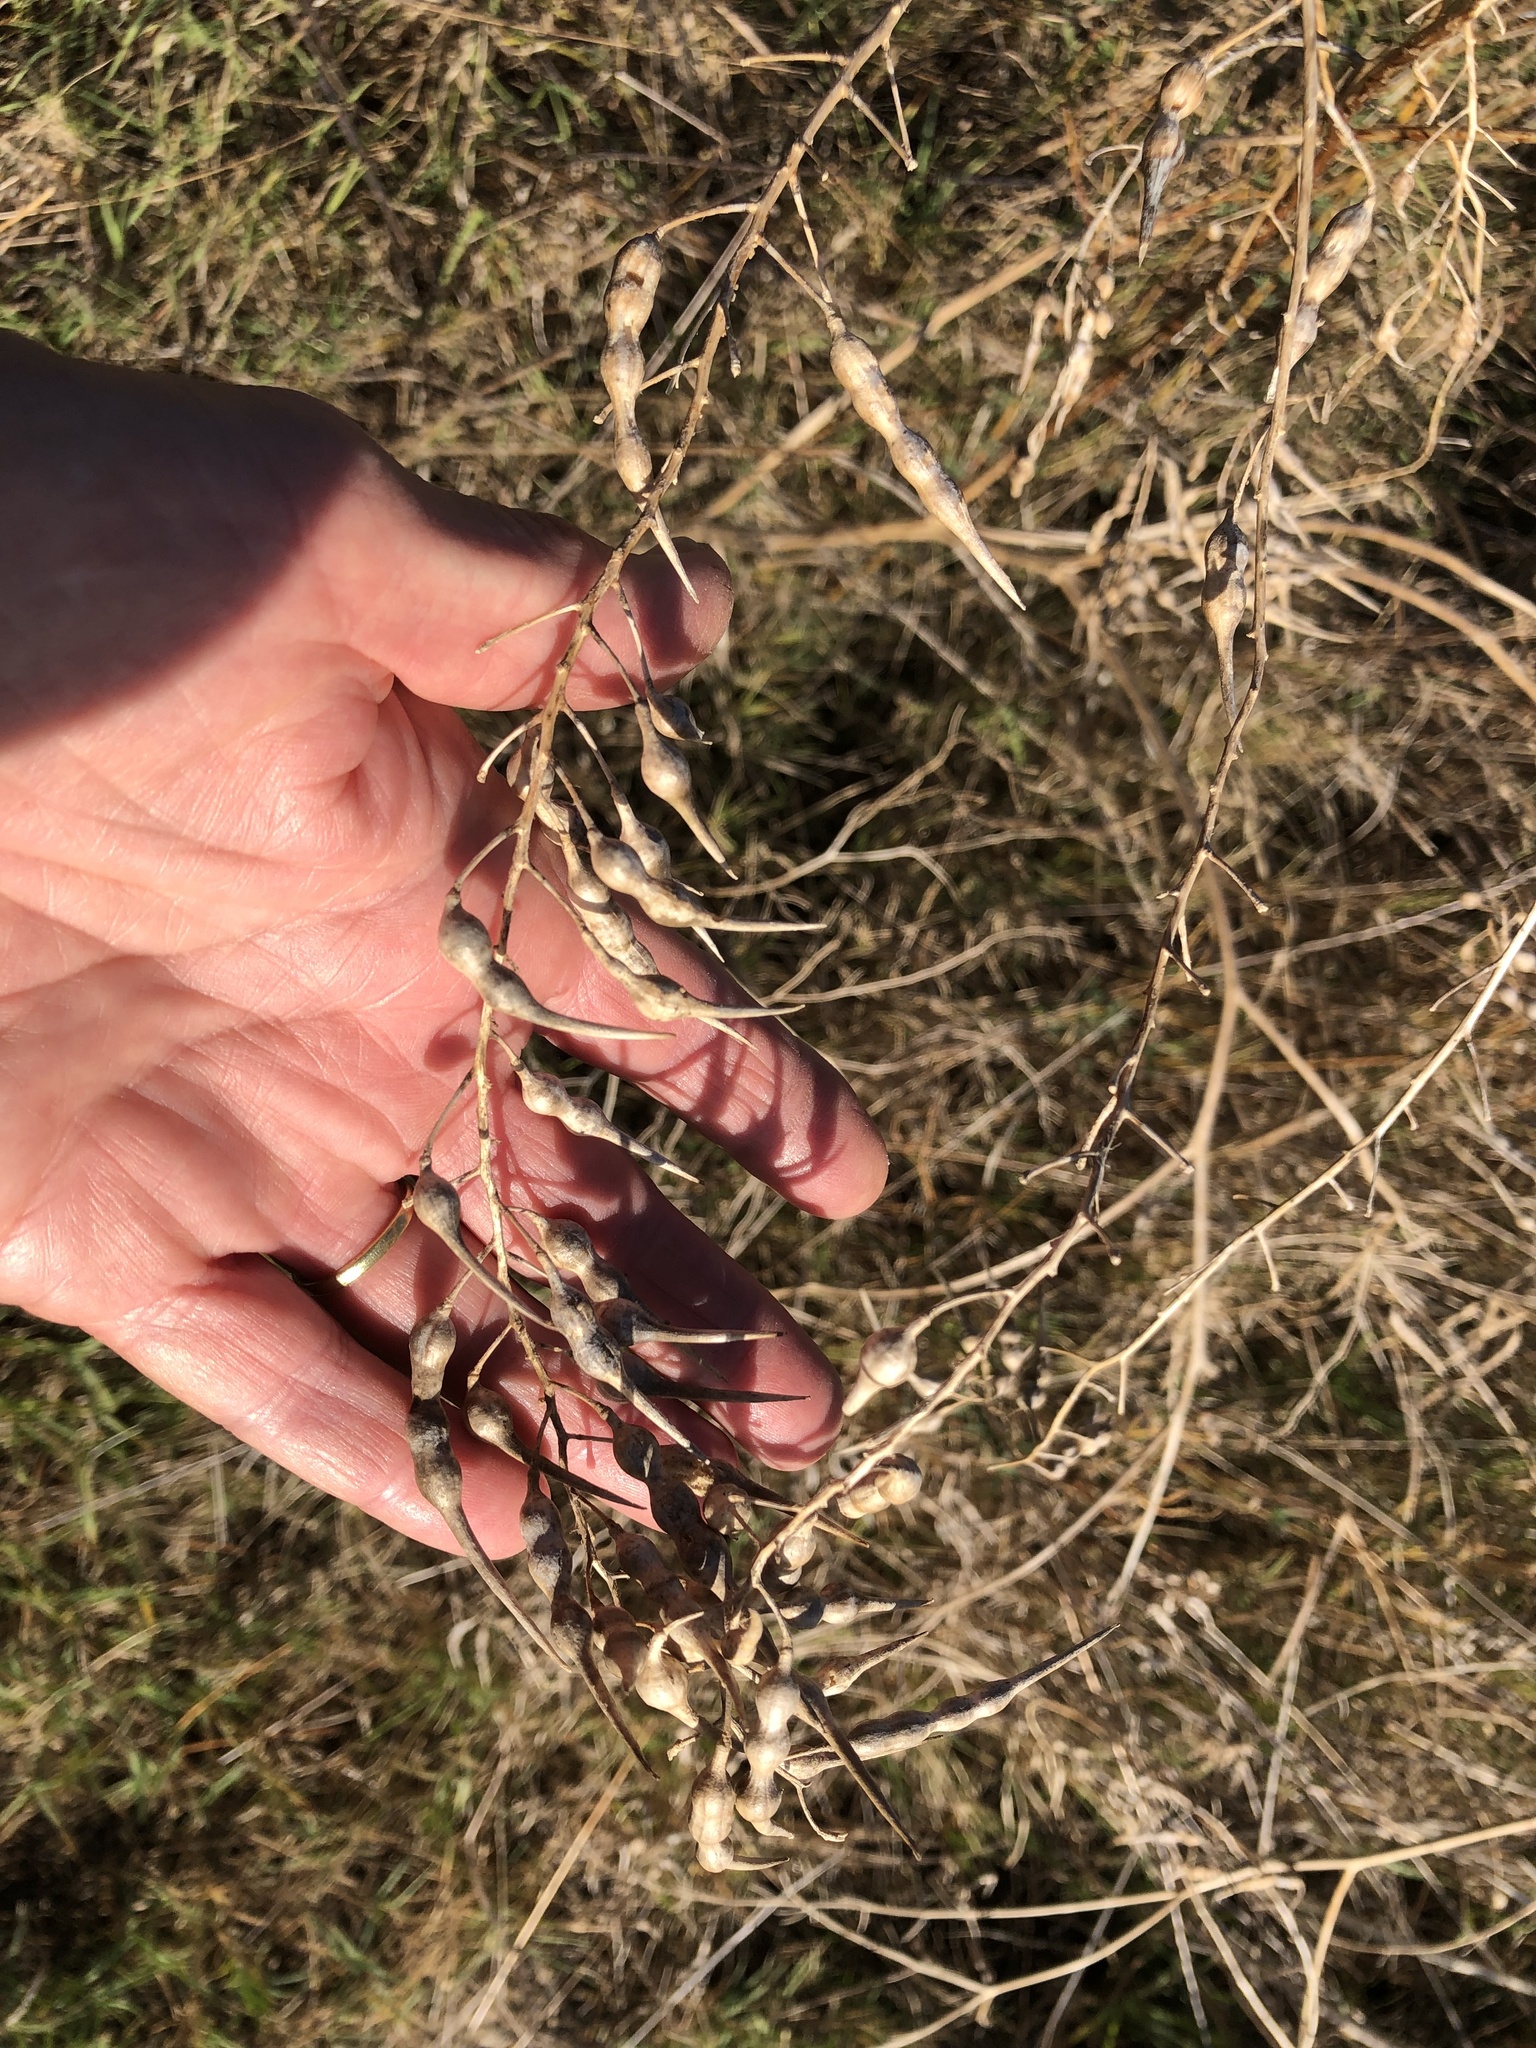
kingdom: Plantae
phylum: Tracheophyta
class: Magnoliopsida
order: Brassicales
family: Brassicaceae
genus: Raphanus
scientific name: Raphanus raphanistrum
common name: Wild radish
